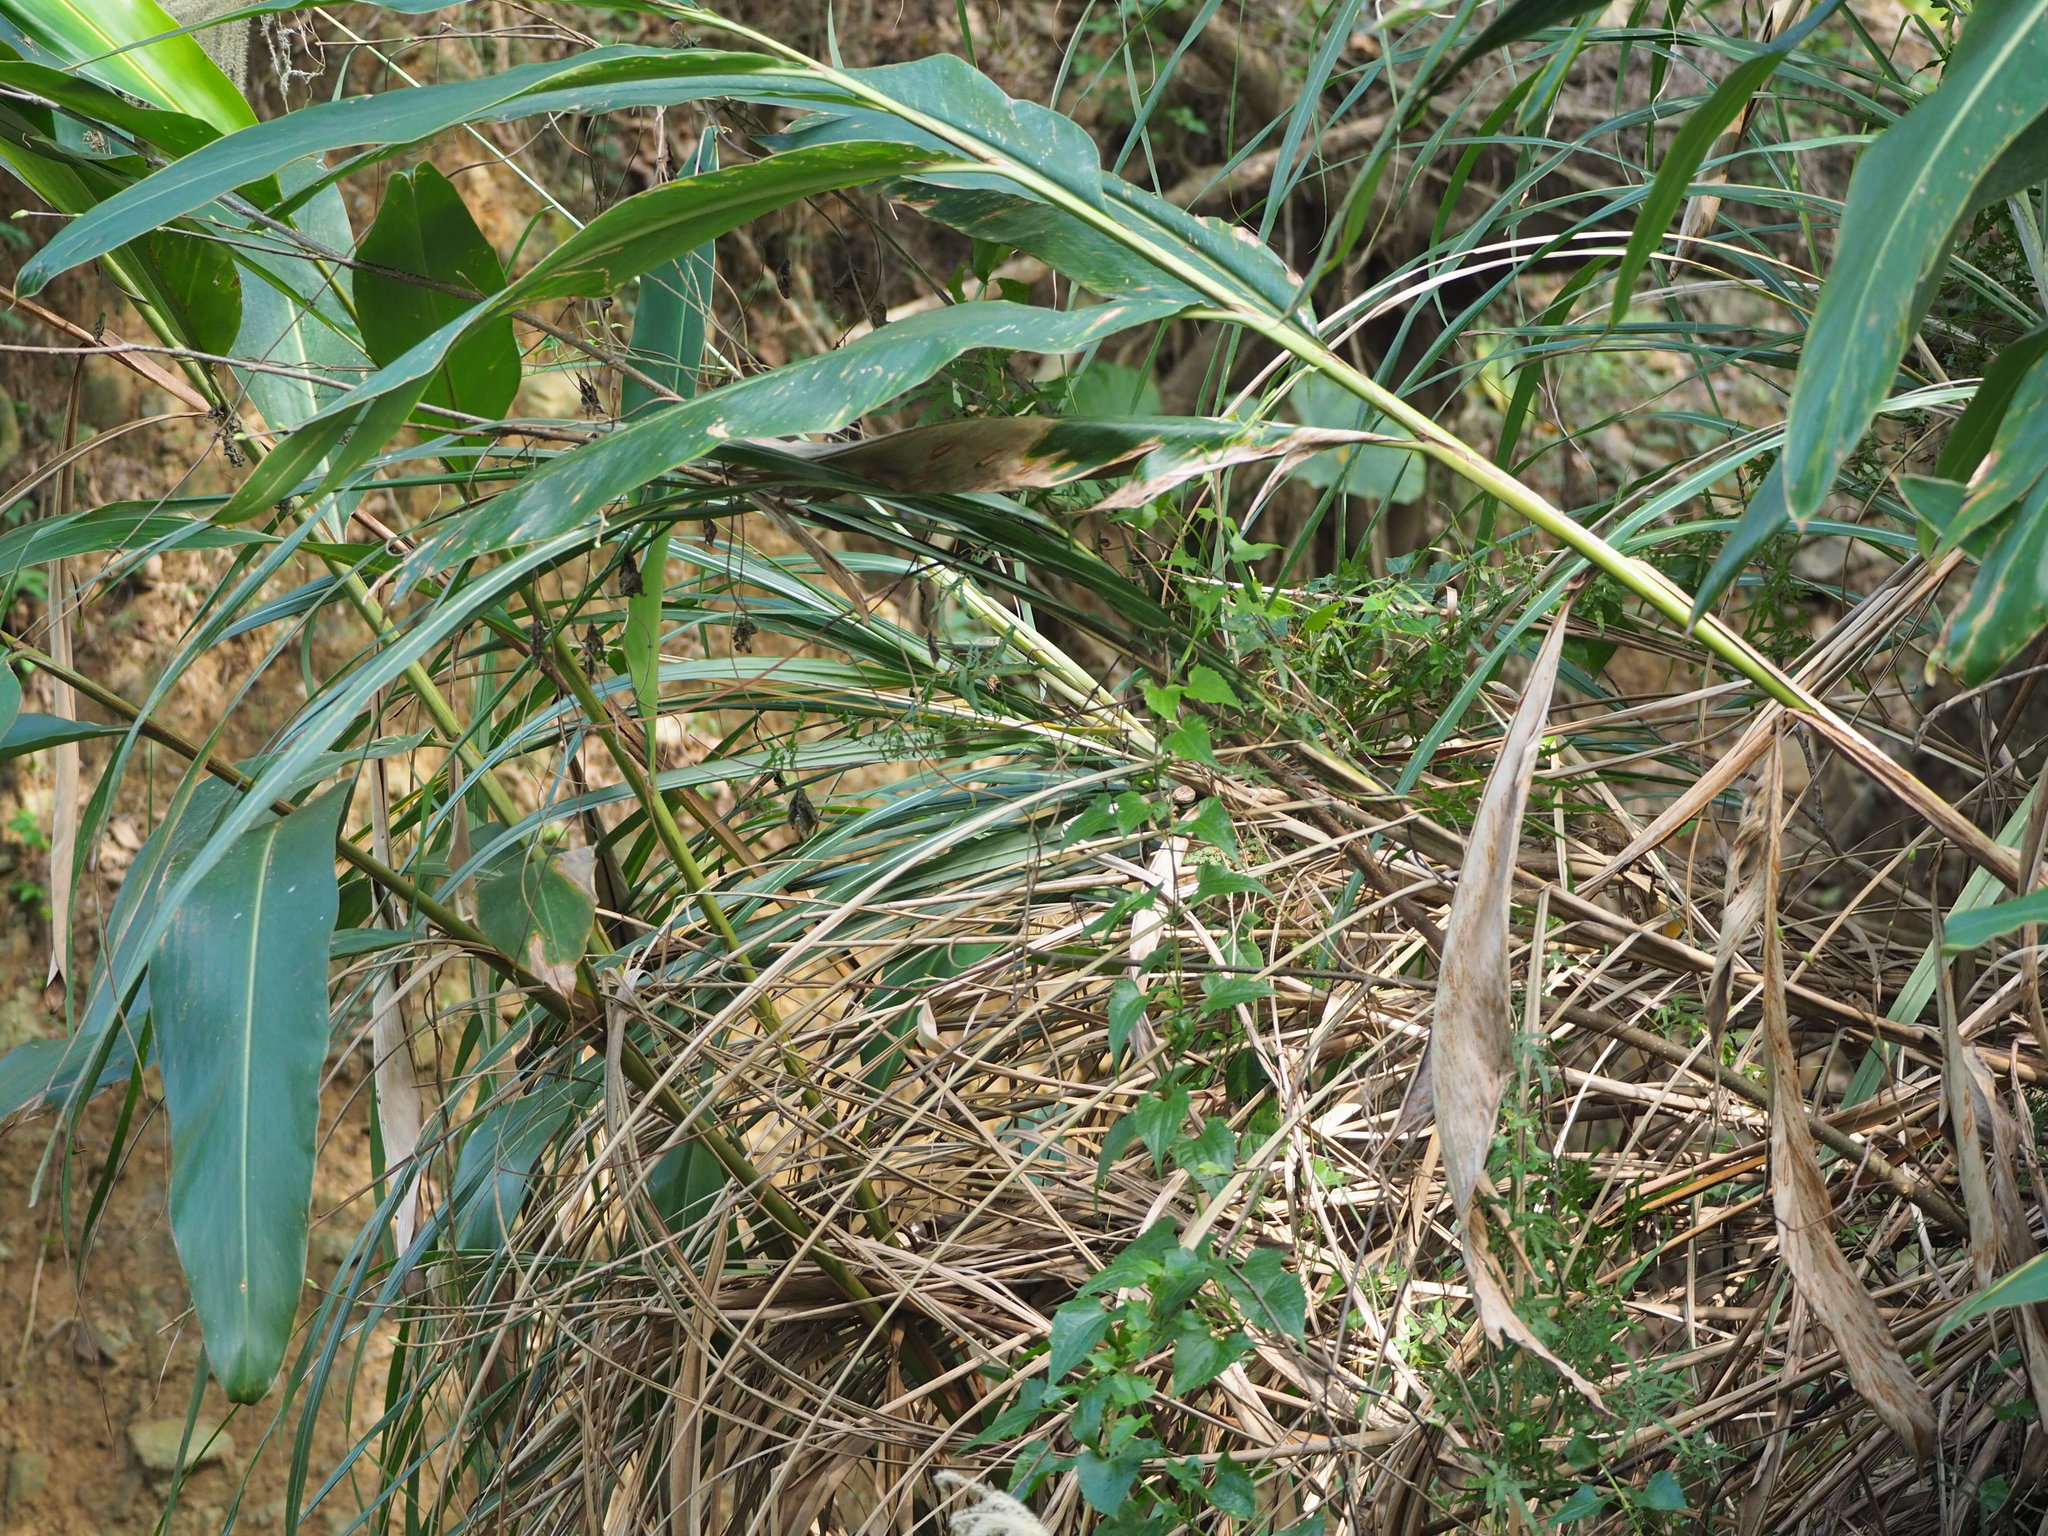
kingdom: Plantae
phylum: Tracheophyta
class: Liliopsida
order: Zingiberales
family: Zingiberaceae
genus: Alpinia
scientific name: Alpinia zerumbet
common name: Shellplant
